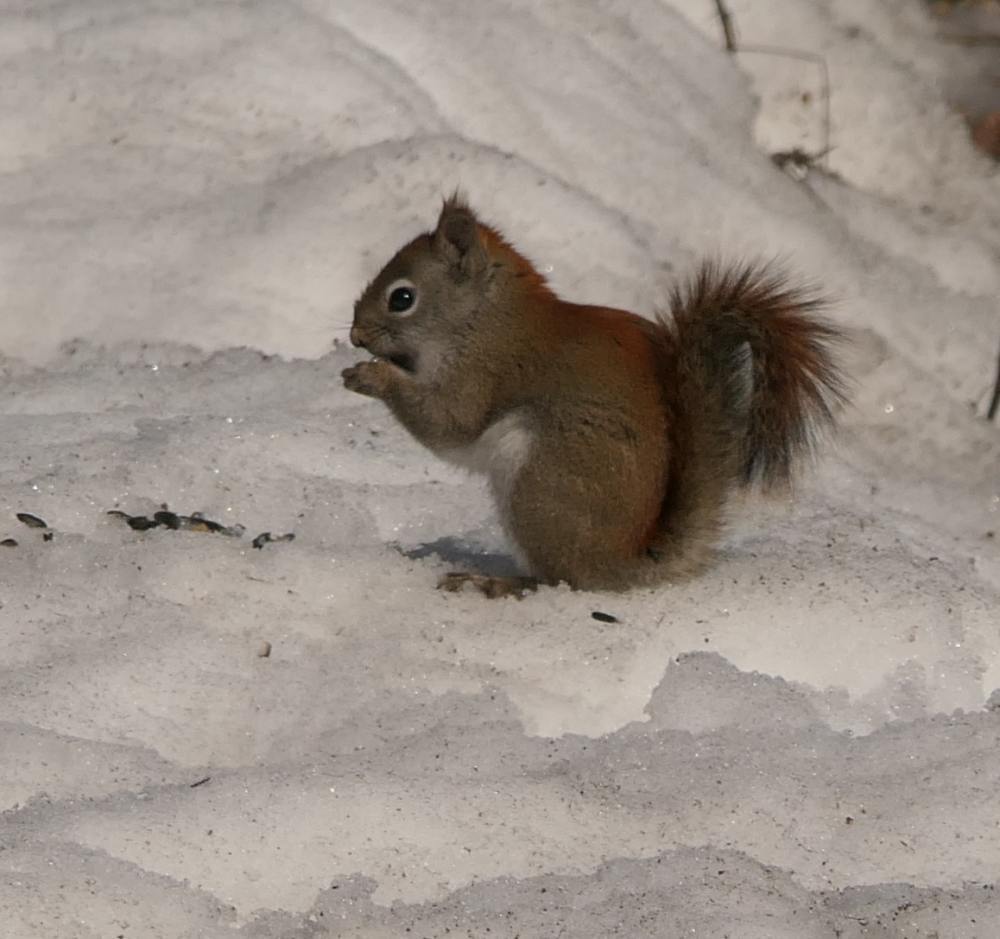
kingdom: Animalia
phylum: Chordata
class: Mammalia
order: Rodentia
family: Sciuridae
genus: Tamiasciurus
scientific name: Tamiasciurus hudsonicus
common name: Red squirrel
